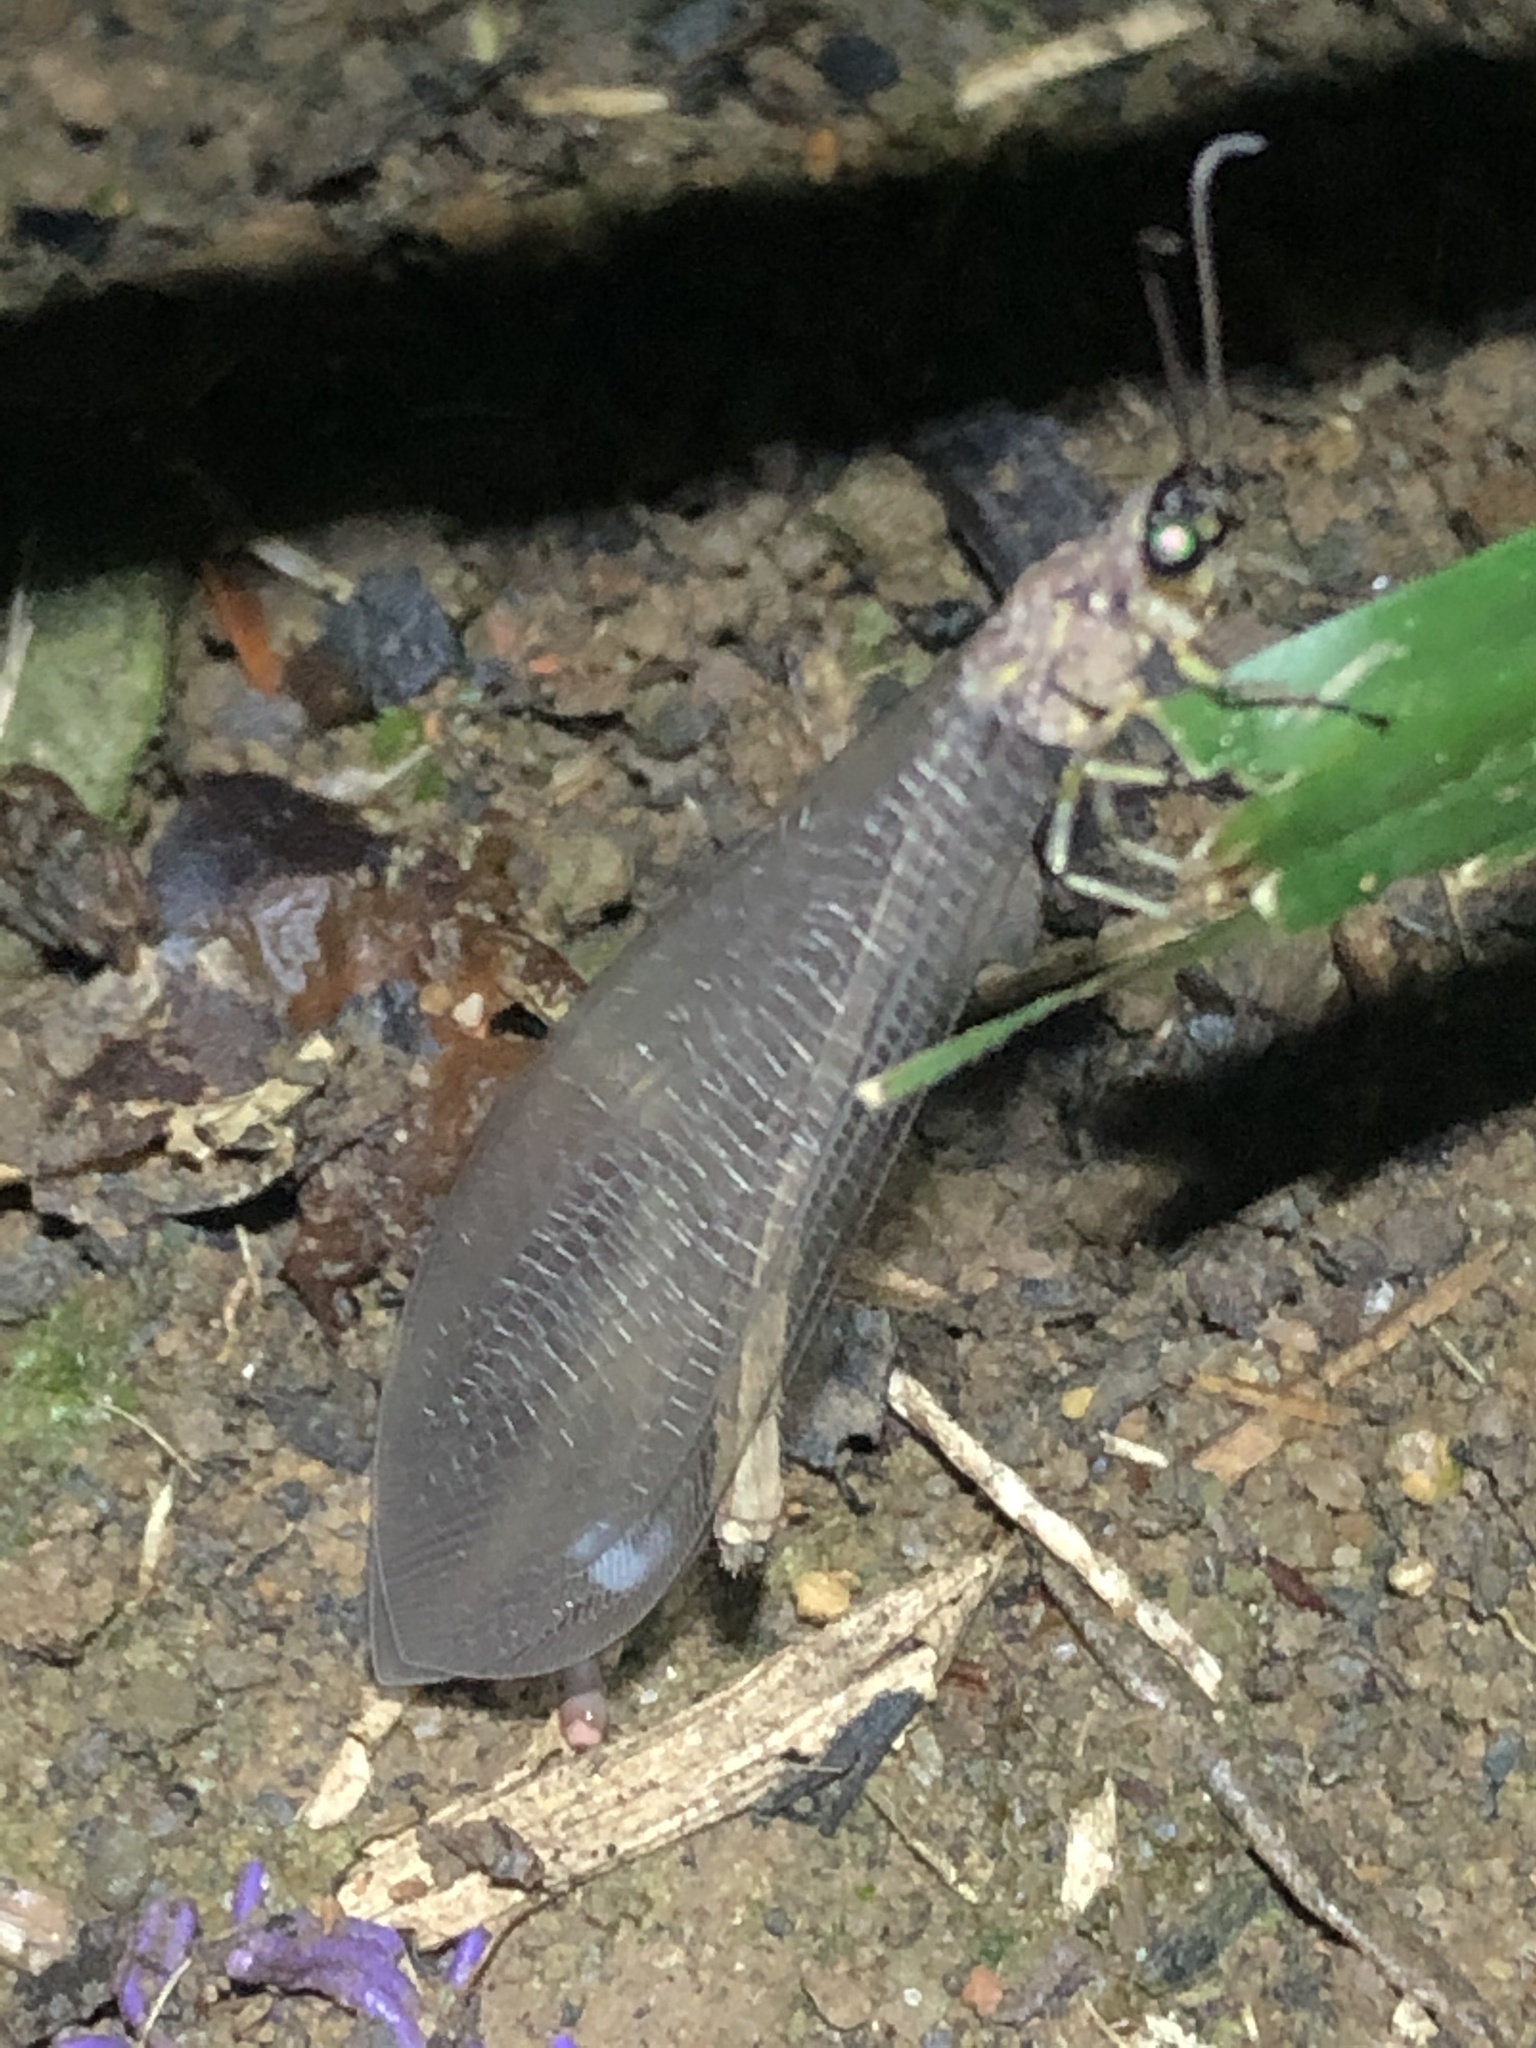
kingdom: Animalia
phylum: Arthropoda
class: Insecta
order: Neuroptera
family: Myrmeleontidae
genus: Myrmeleon
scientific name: Myrmeleon timidus
